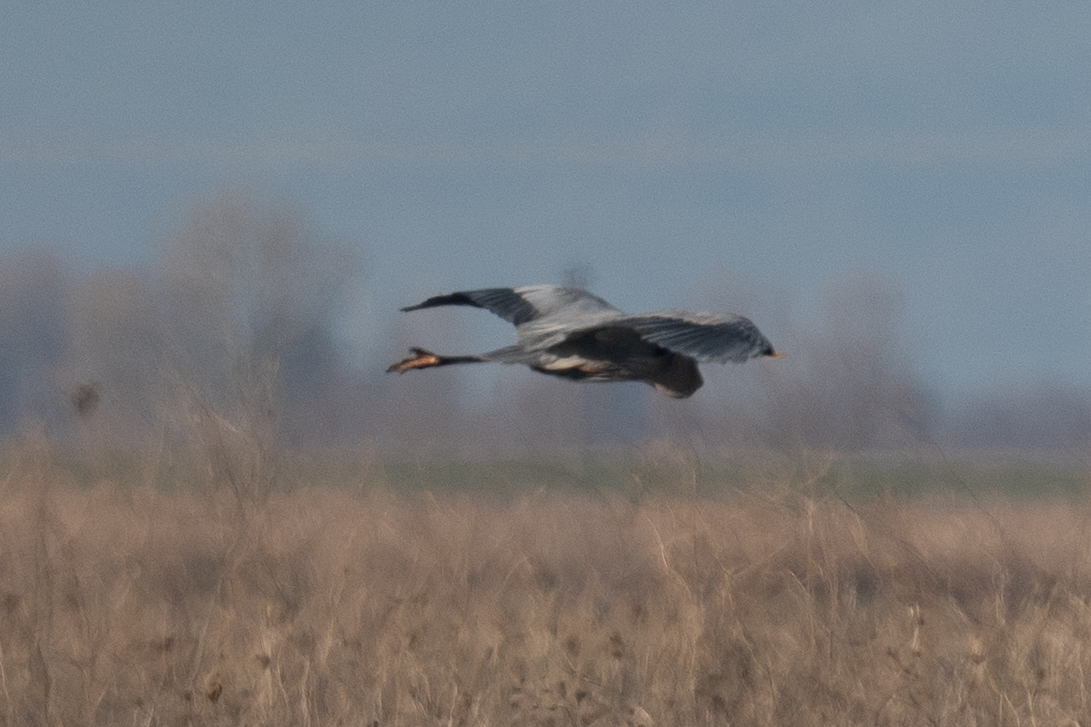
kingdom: Animalia
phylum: Chordata
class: Aves
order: Pelecaniformes
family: Ardeidae
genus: Ardea
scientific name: Ardea herodias
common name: Great blue heron
